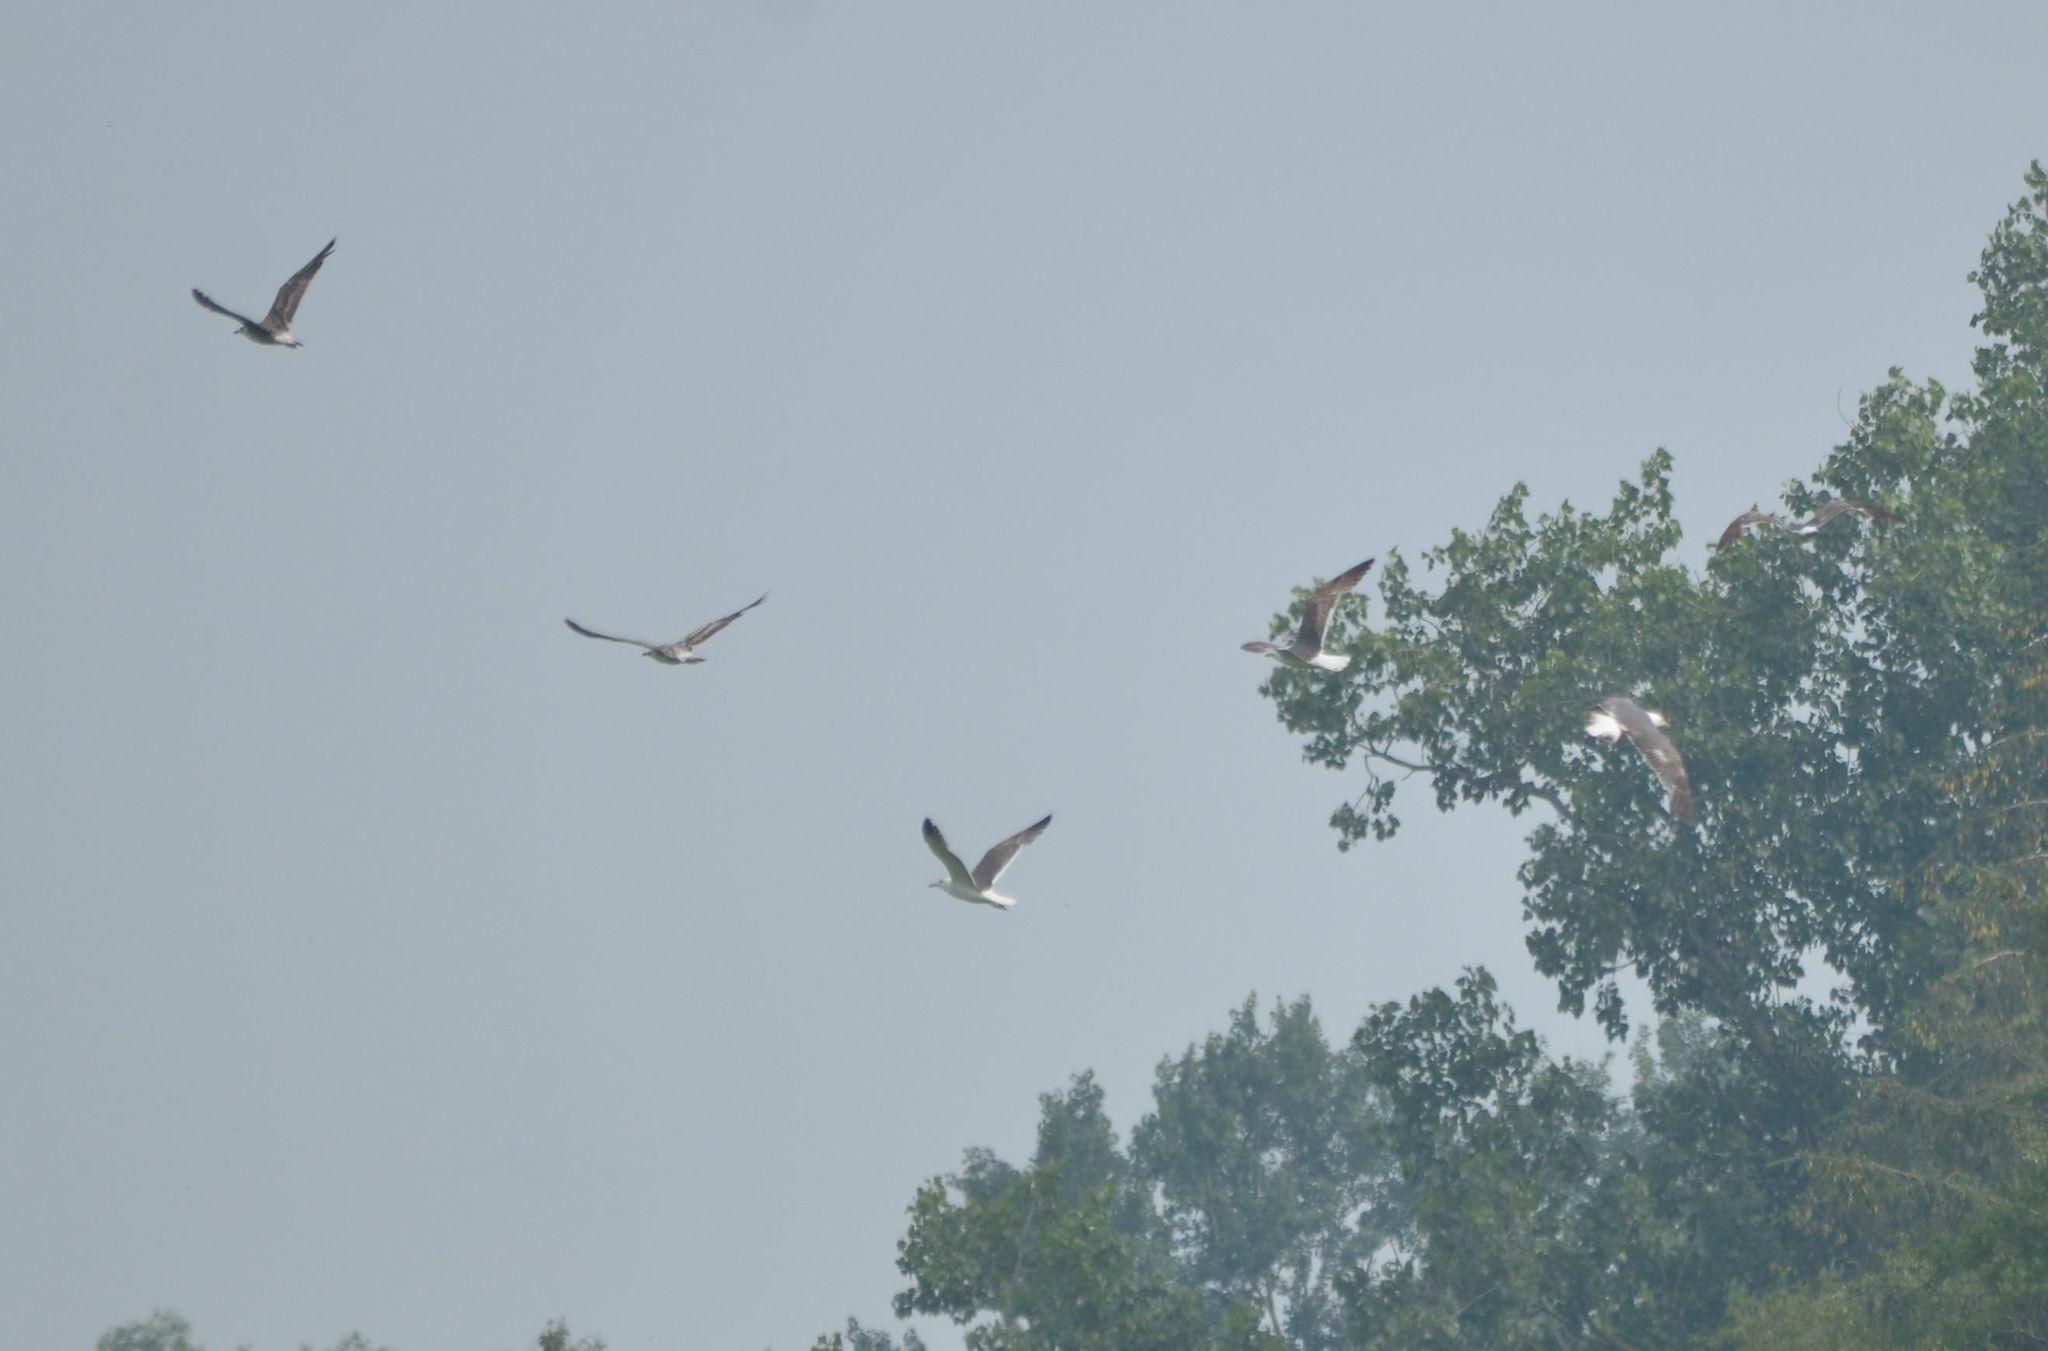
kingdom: Animalia
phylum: Chordata
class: Aves
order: Charadriiformes
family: Laridae
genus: Larus
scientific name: Larus fuscus
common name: Lesser black-backed gull
